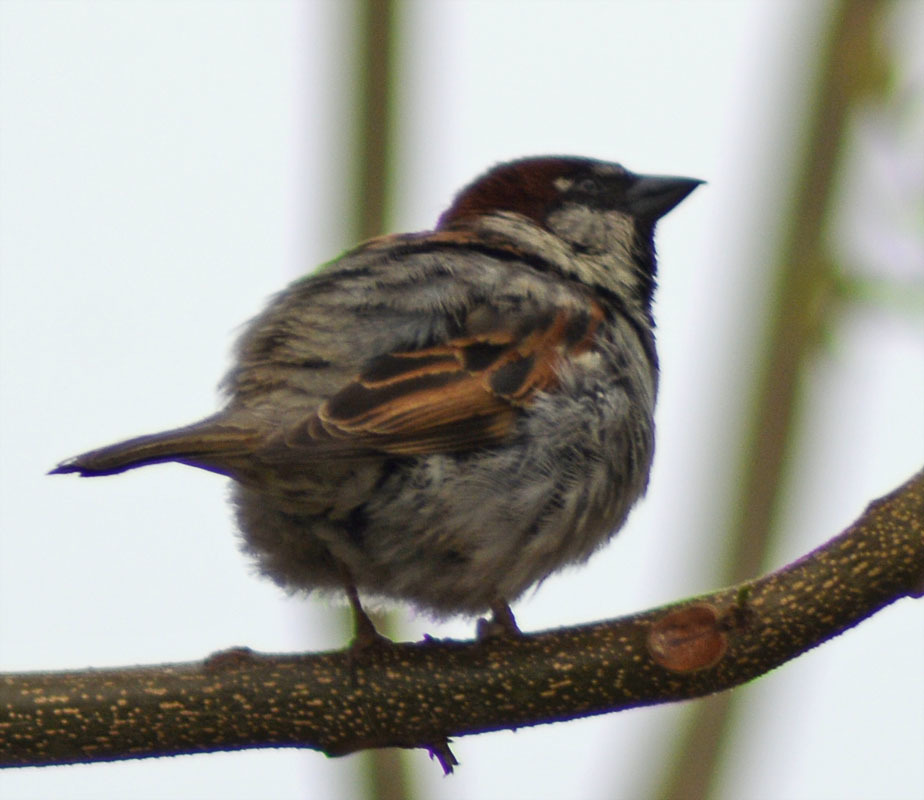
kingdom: Animalia
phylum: Chordata
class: Aves
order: Passeriformes
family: Passeridae
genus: Passer
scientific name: Passer domesticus
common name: House sparrow
